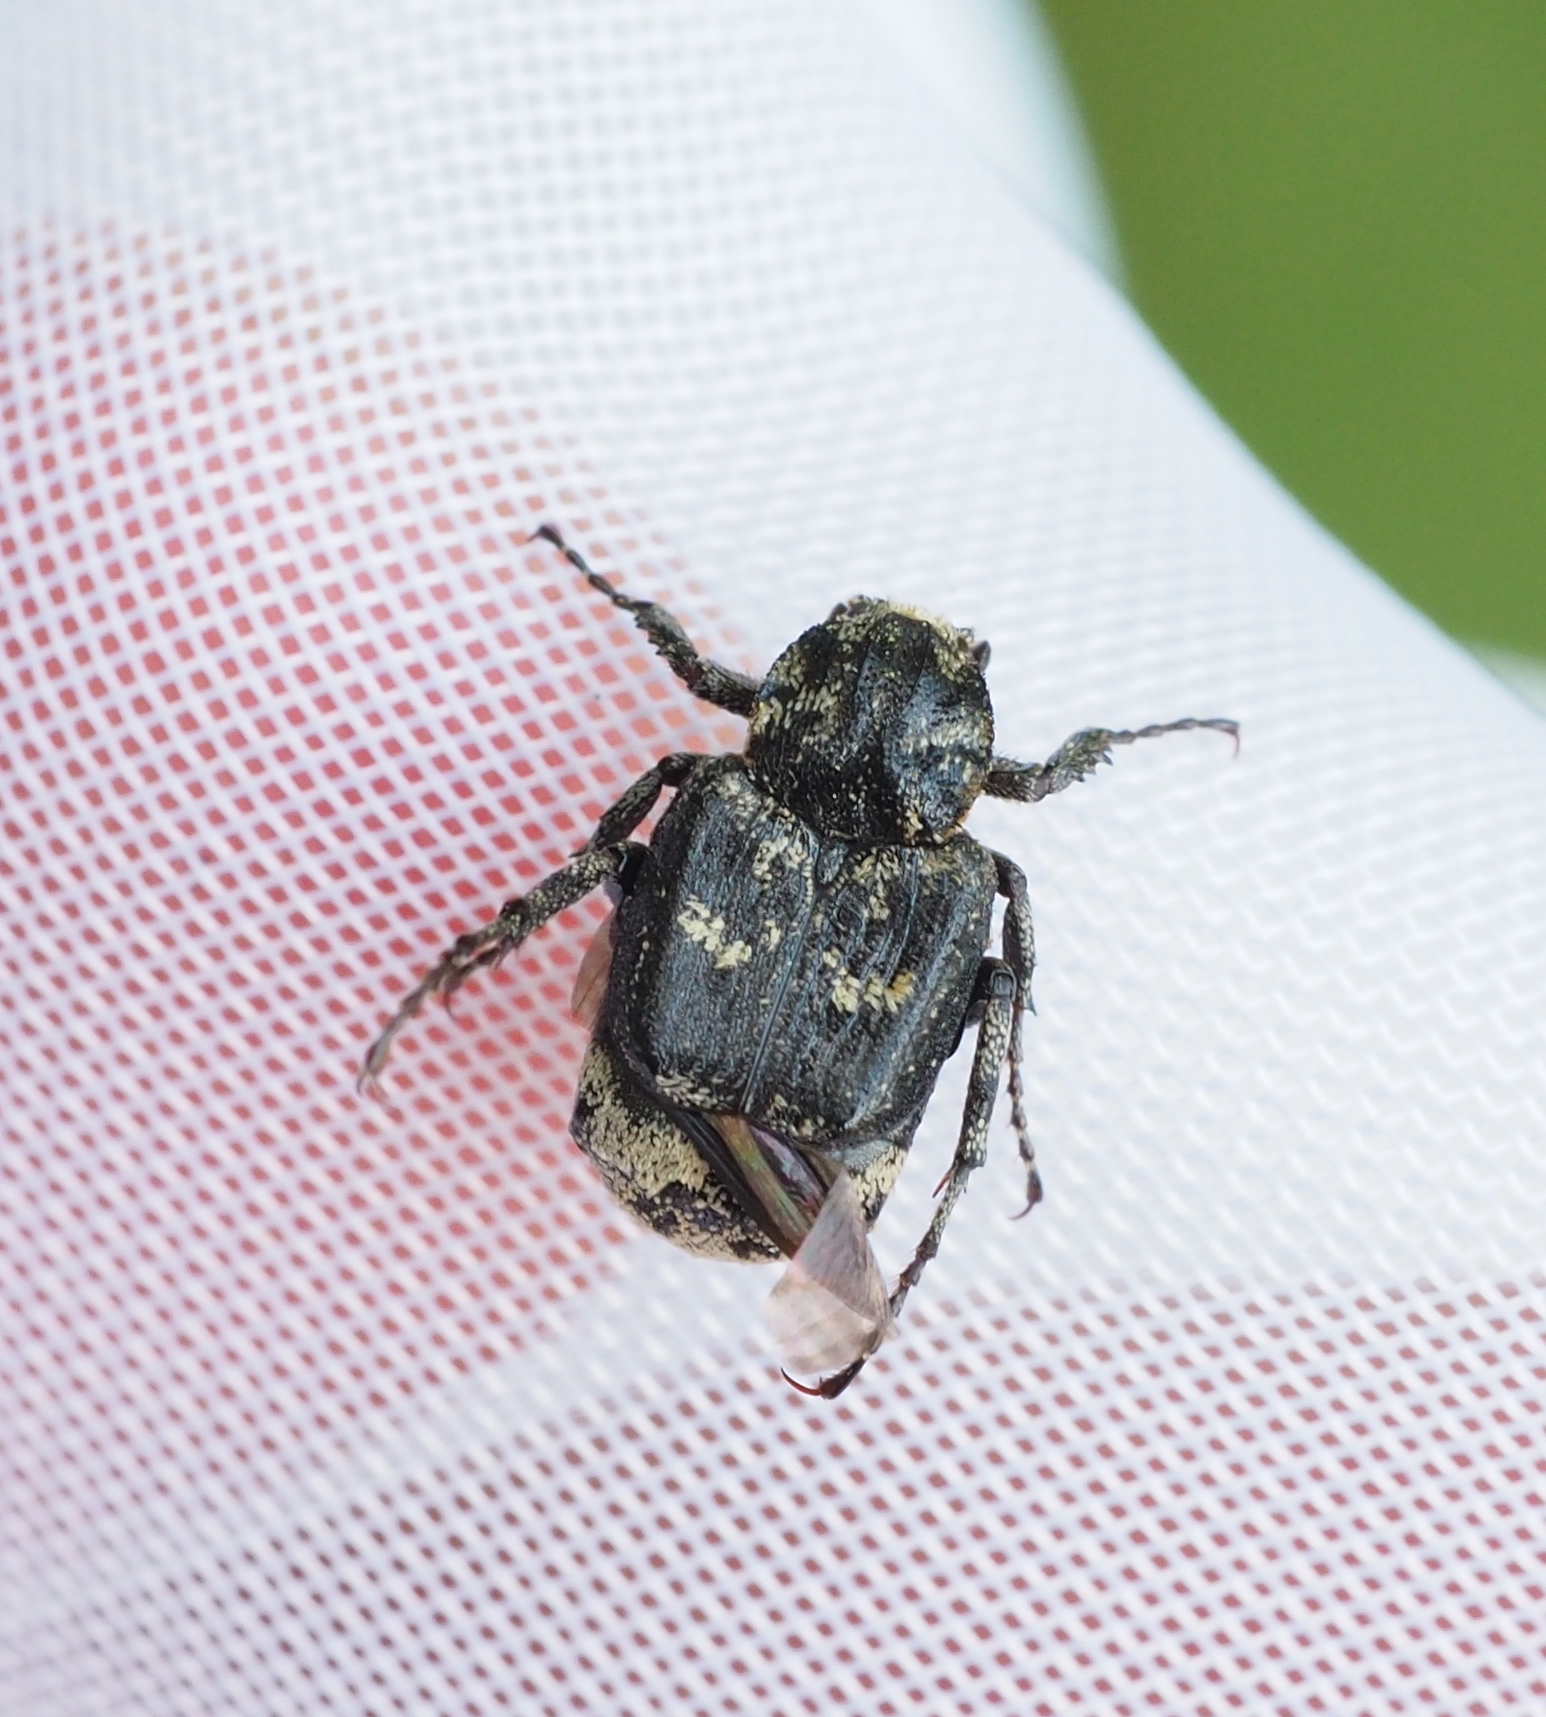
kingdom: Animalia
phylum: Arthropoda
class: Insecta
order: Coleoptera
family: Scarabaeidae
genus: Valgus
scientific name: Valgus hemipterus
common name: Bug flower chafer
